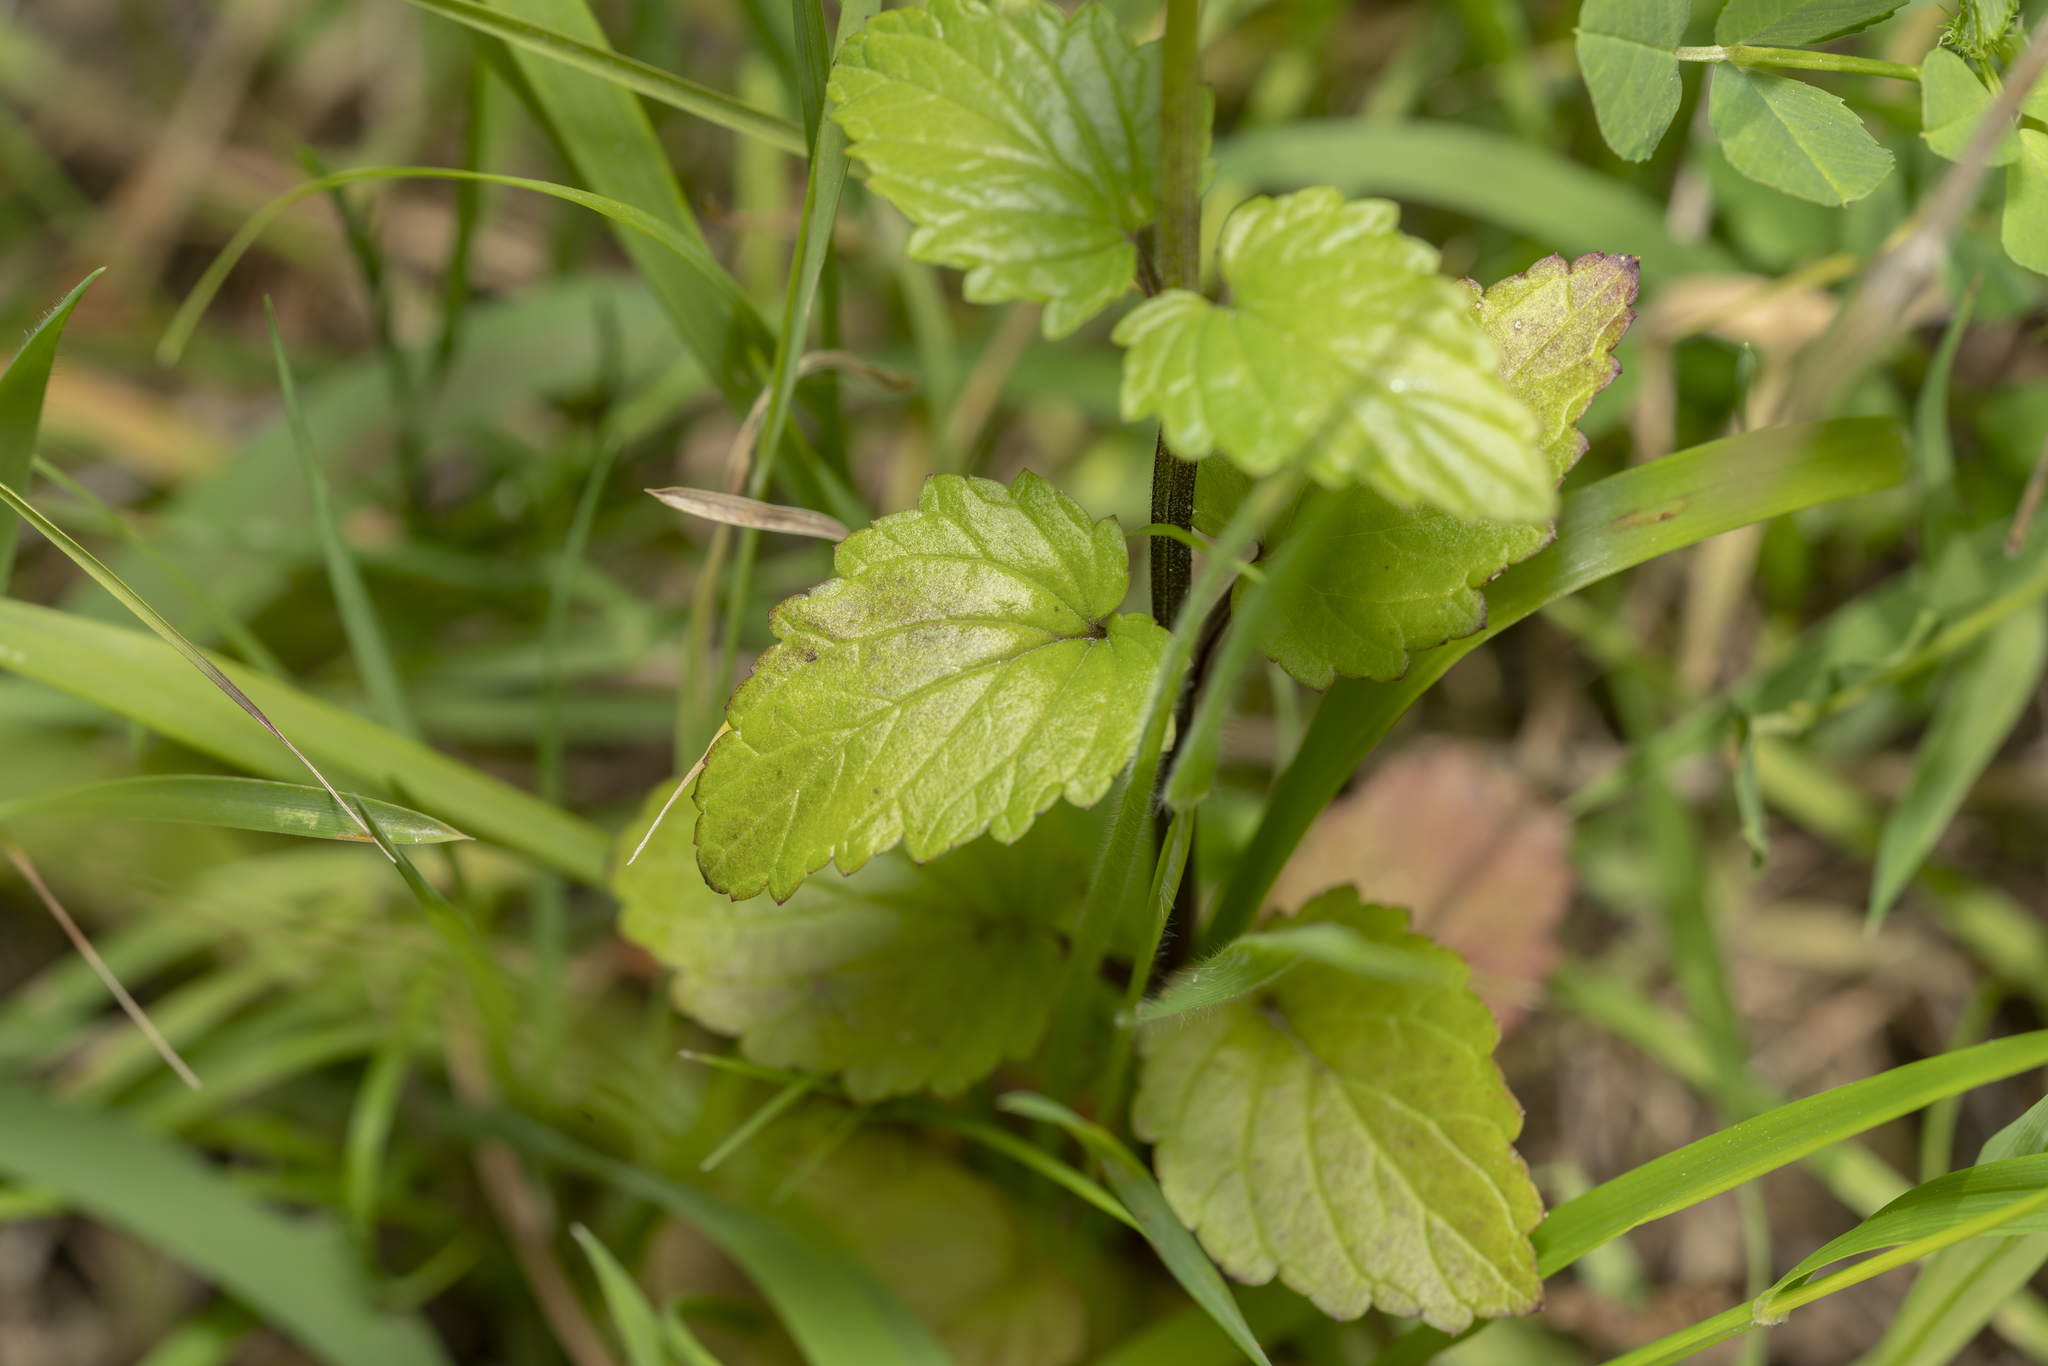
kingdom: Plantae
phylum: Tracheophyta
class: Magnoliopsida
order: Lamiales
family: Scrophulariaceae
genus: Scrophularia
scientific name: Scrophularia peregrina
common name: Mediterranean figwort
